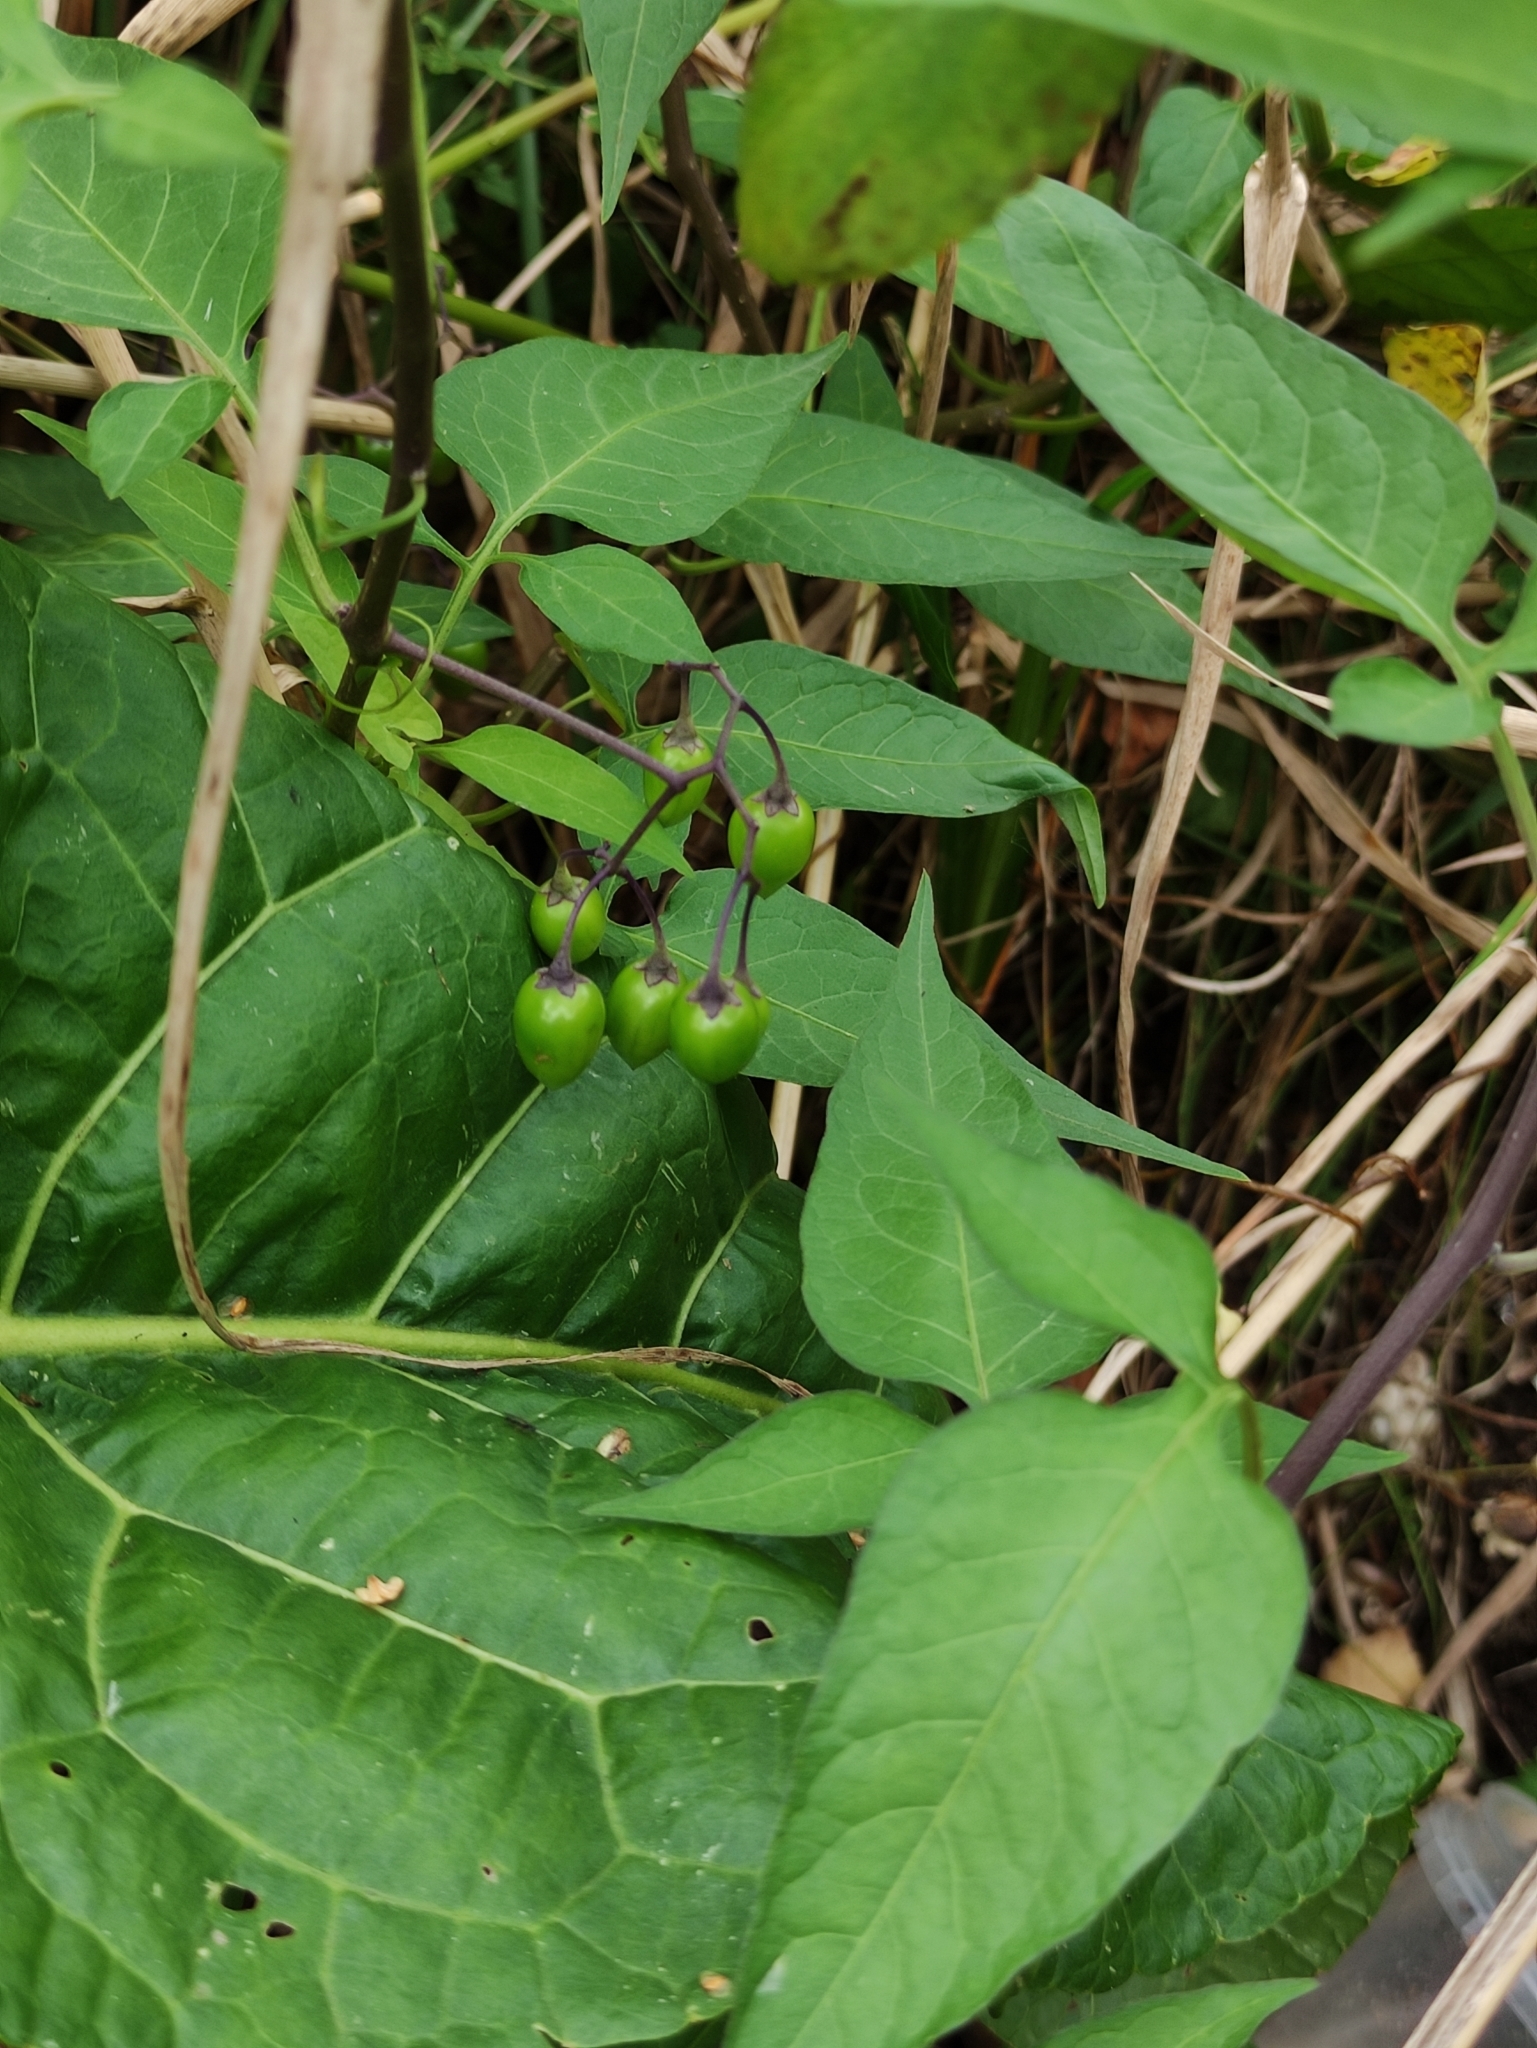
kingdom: Plantae
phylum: Tracheophyta
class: Magnoliopsida
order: Solanales
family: Solanaceae
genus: Solanum
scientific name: Solanum dulcamara
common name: Climbing nightshade
